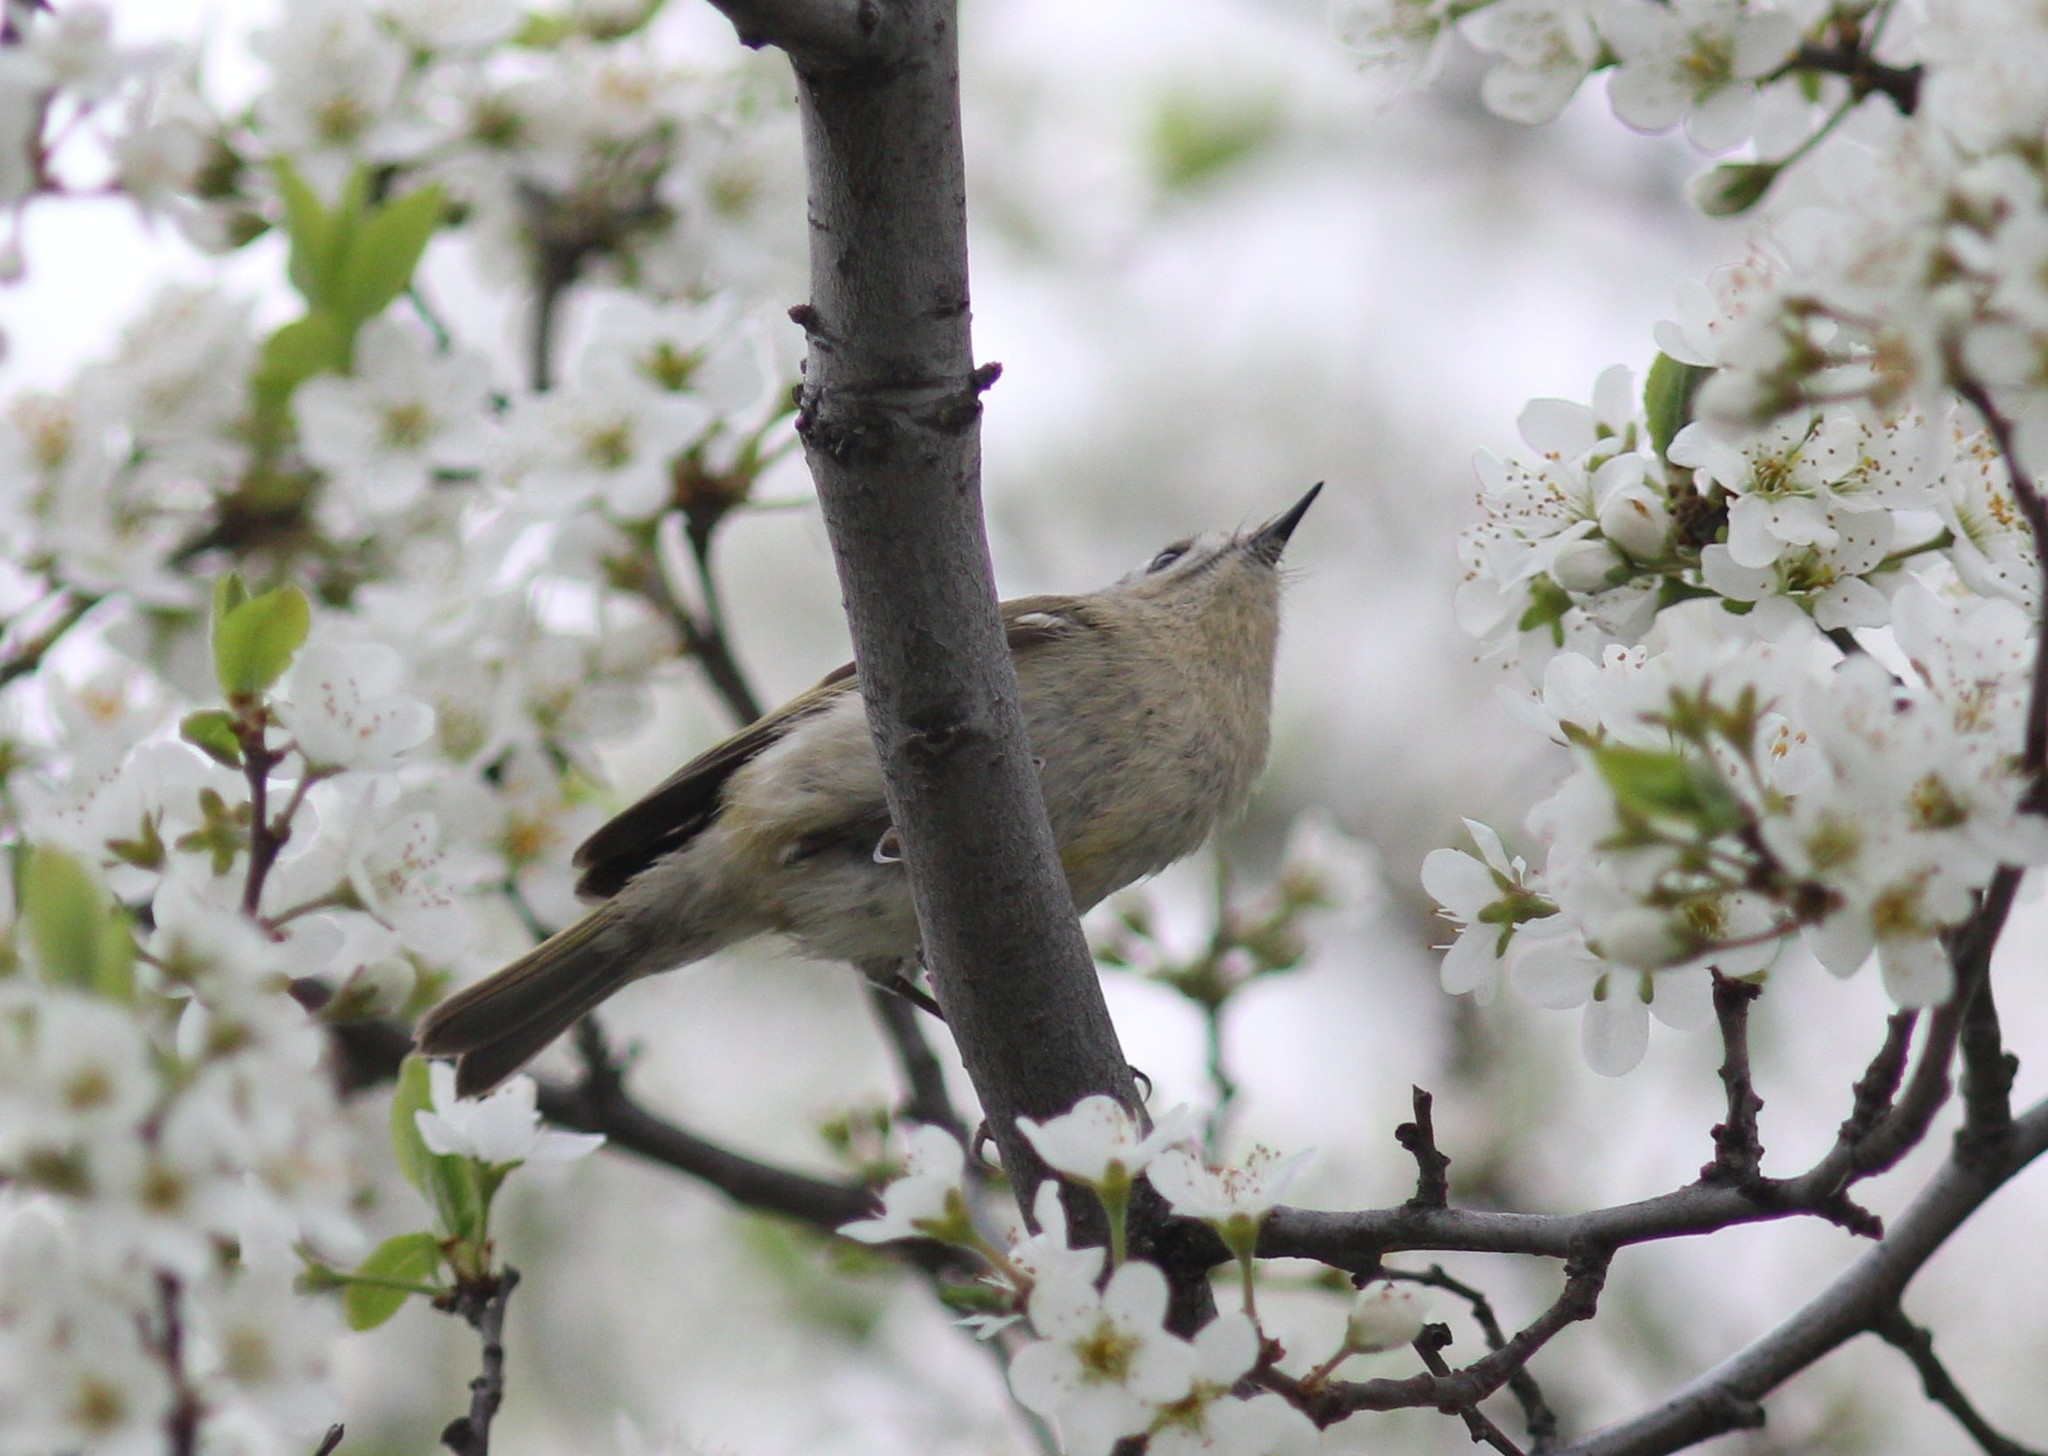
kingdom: Animalia
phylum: Chordata
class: Aves
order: Passeriformes
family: Regulidae
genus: Regulus
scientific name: Regulus regulus
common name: Goldcrest
